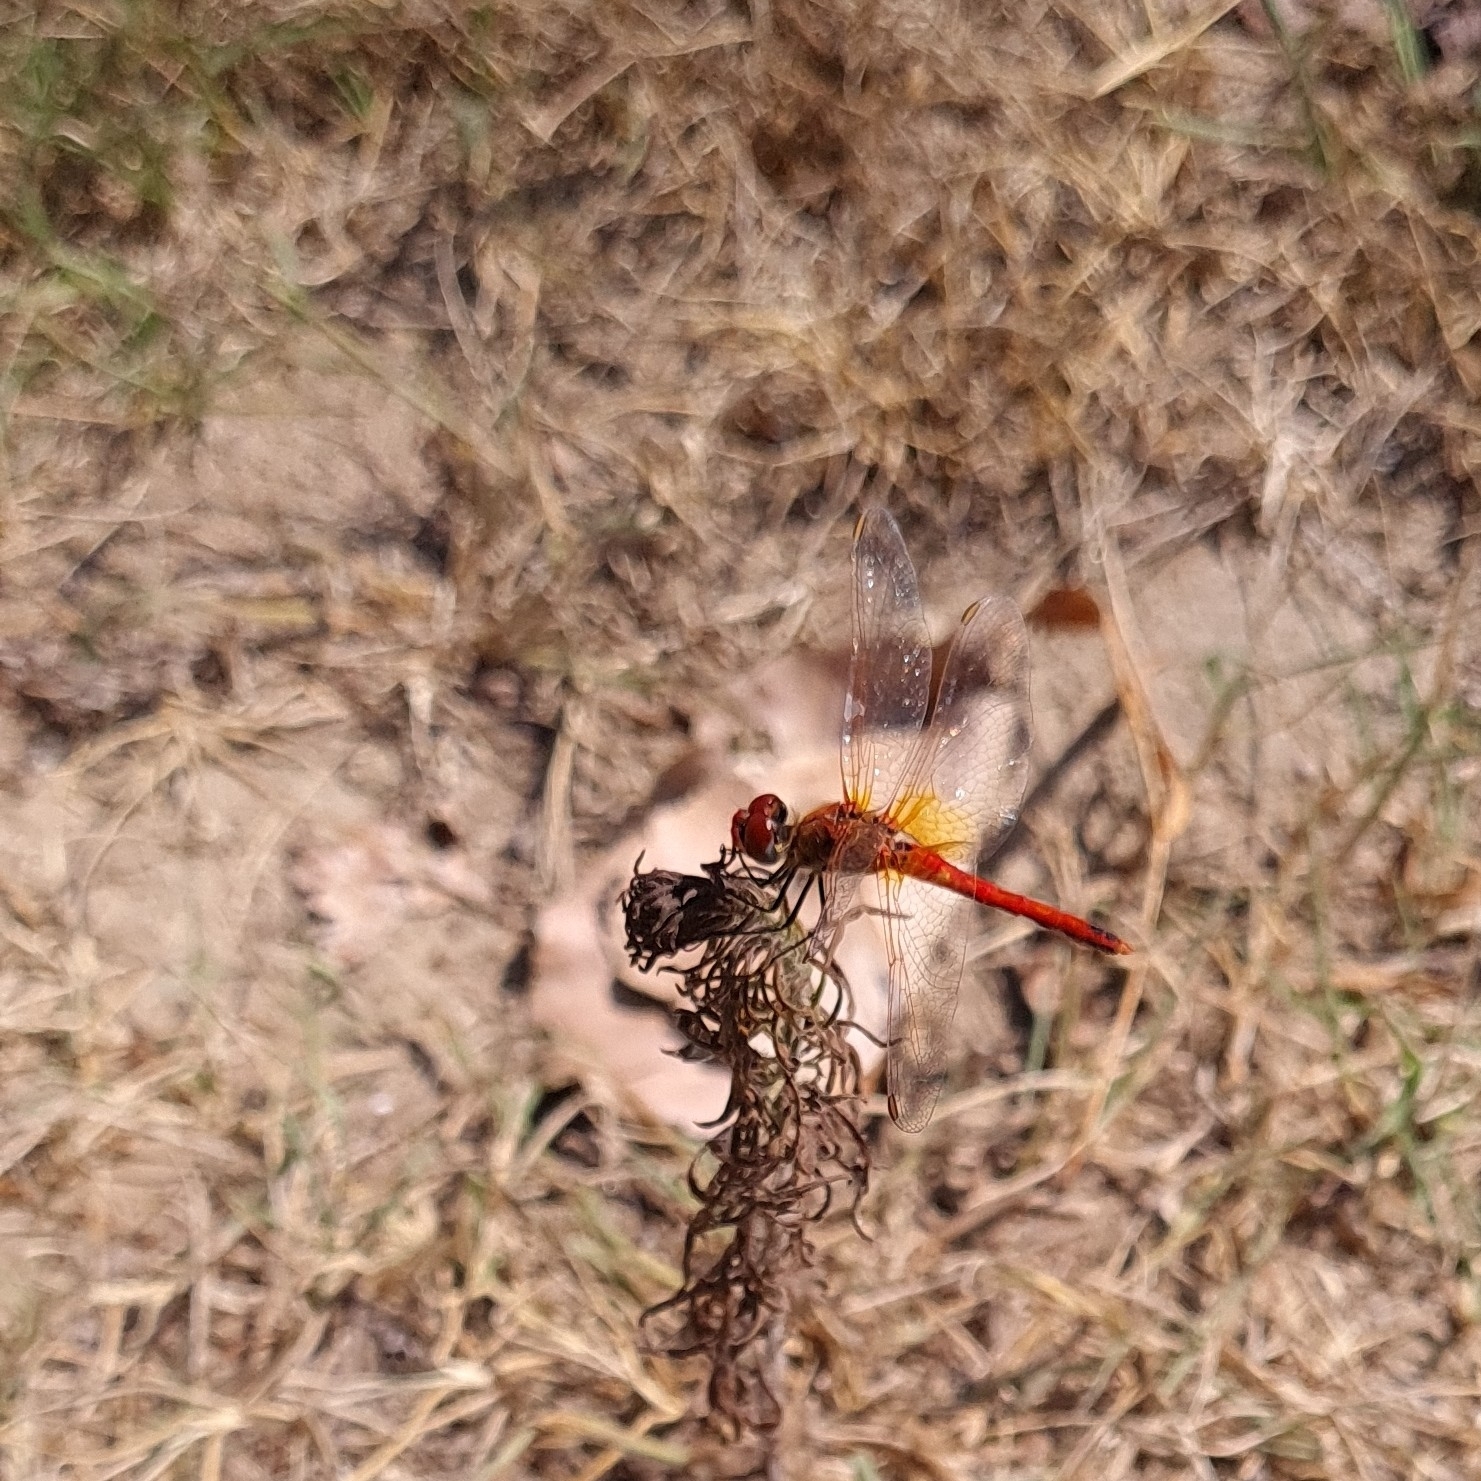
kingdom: Animalia
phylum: Arthropoda
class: Insecta
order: Odonata
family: Libellulidae
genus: Sympetrum
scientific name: Sympetrum fonscolombii
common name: Red-veined darter
